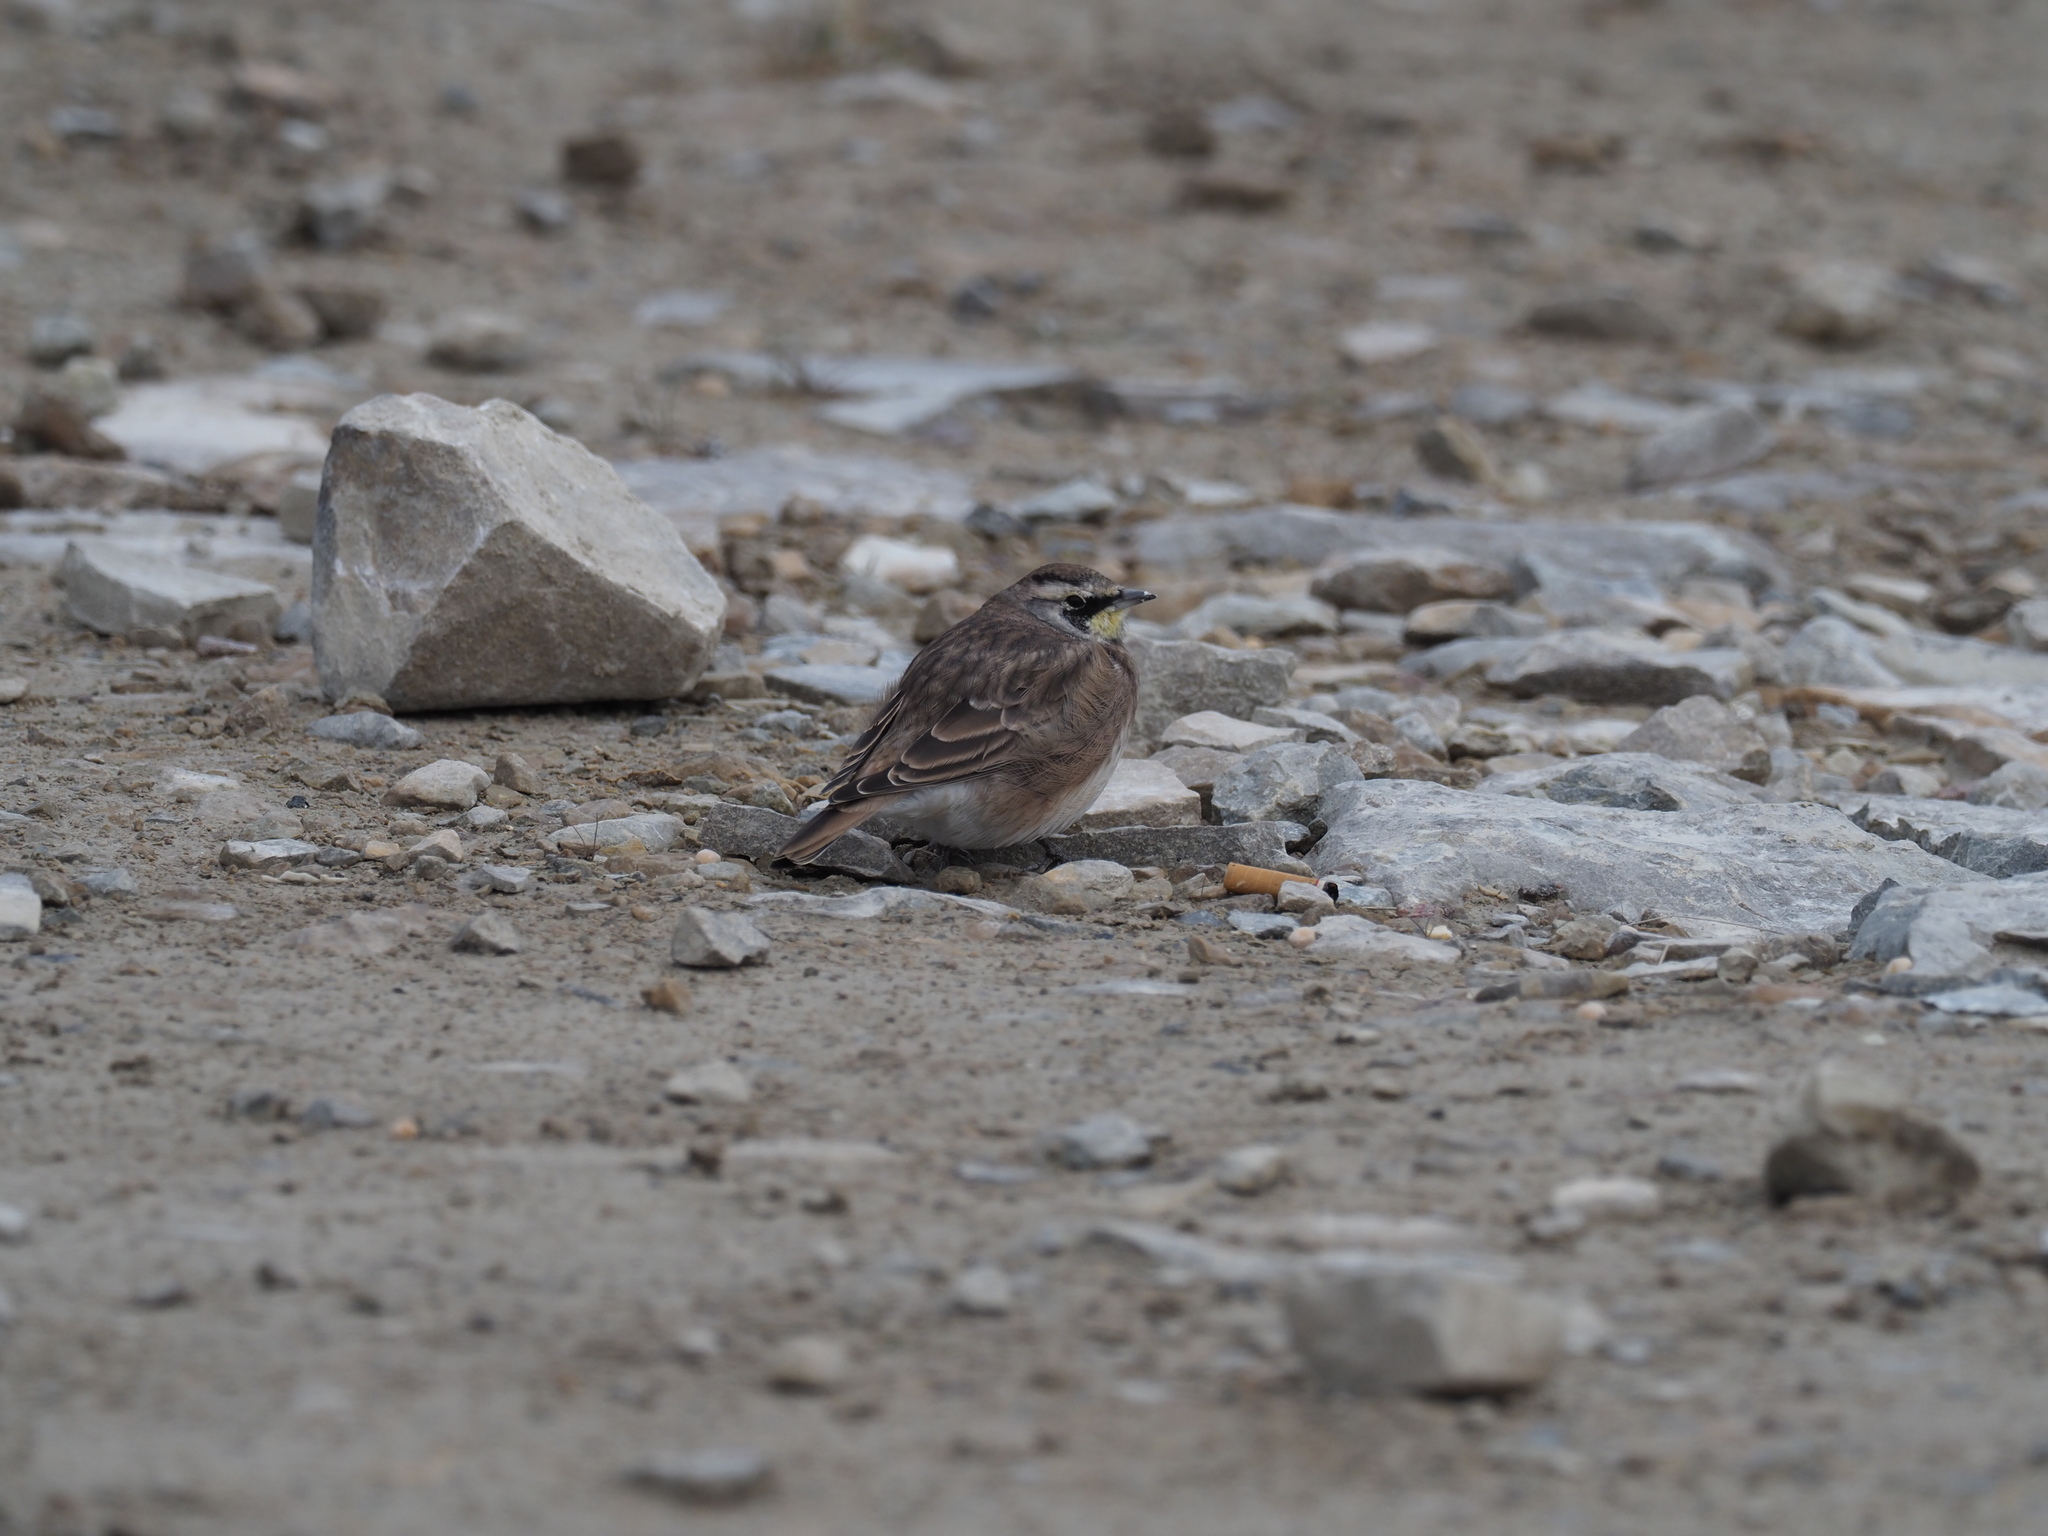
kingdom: Animalia
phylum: Chordata
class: Aves
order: Passeriformes
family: Alaudidae
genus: Eremophila
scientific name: Eremophila alpestris
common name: Horned lark
